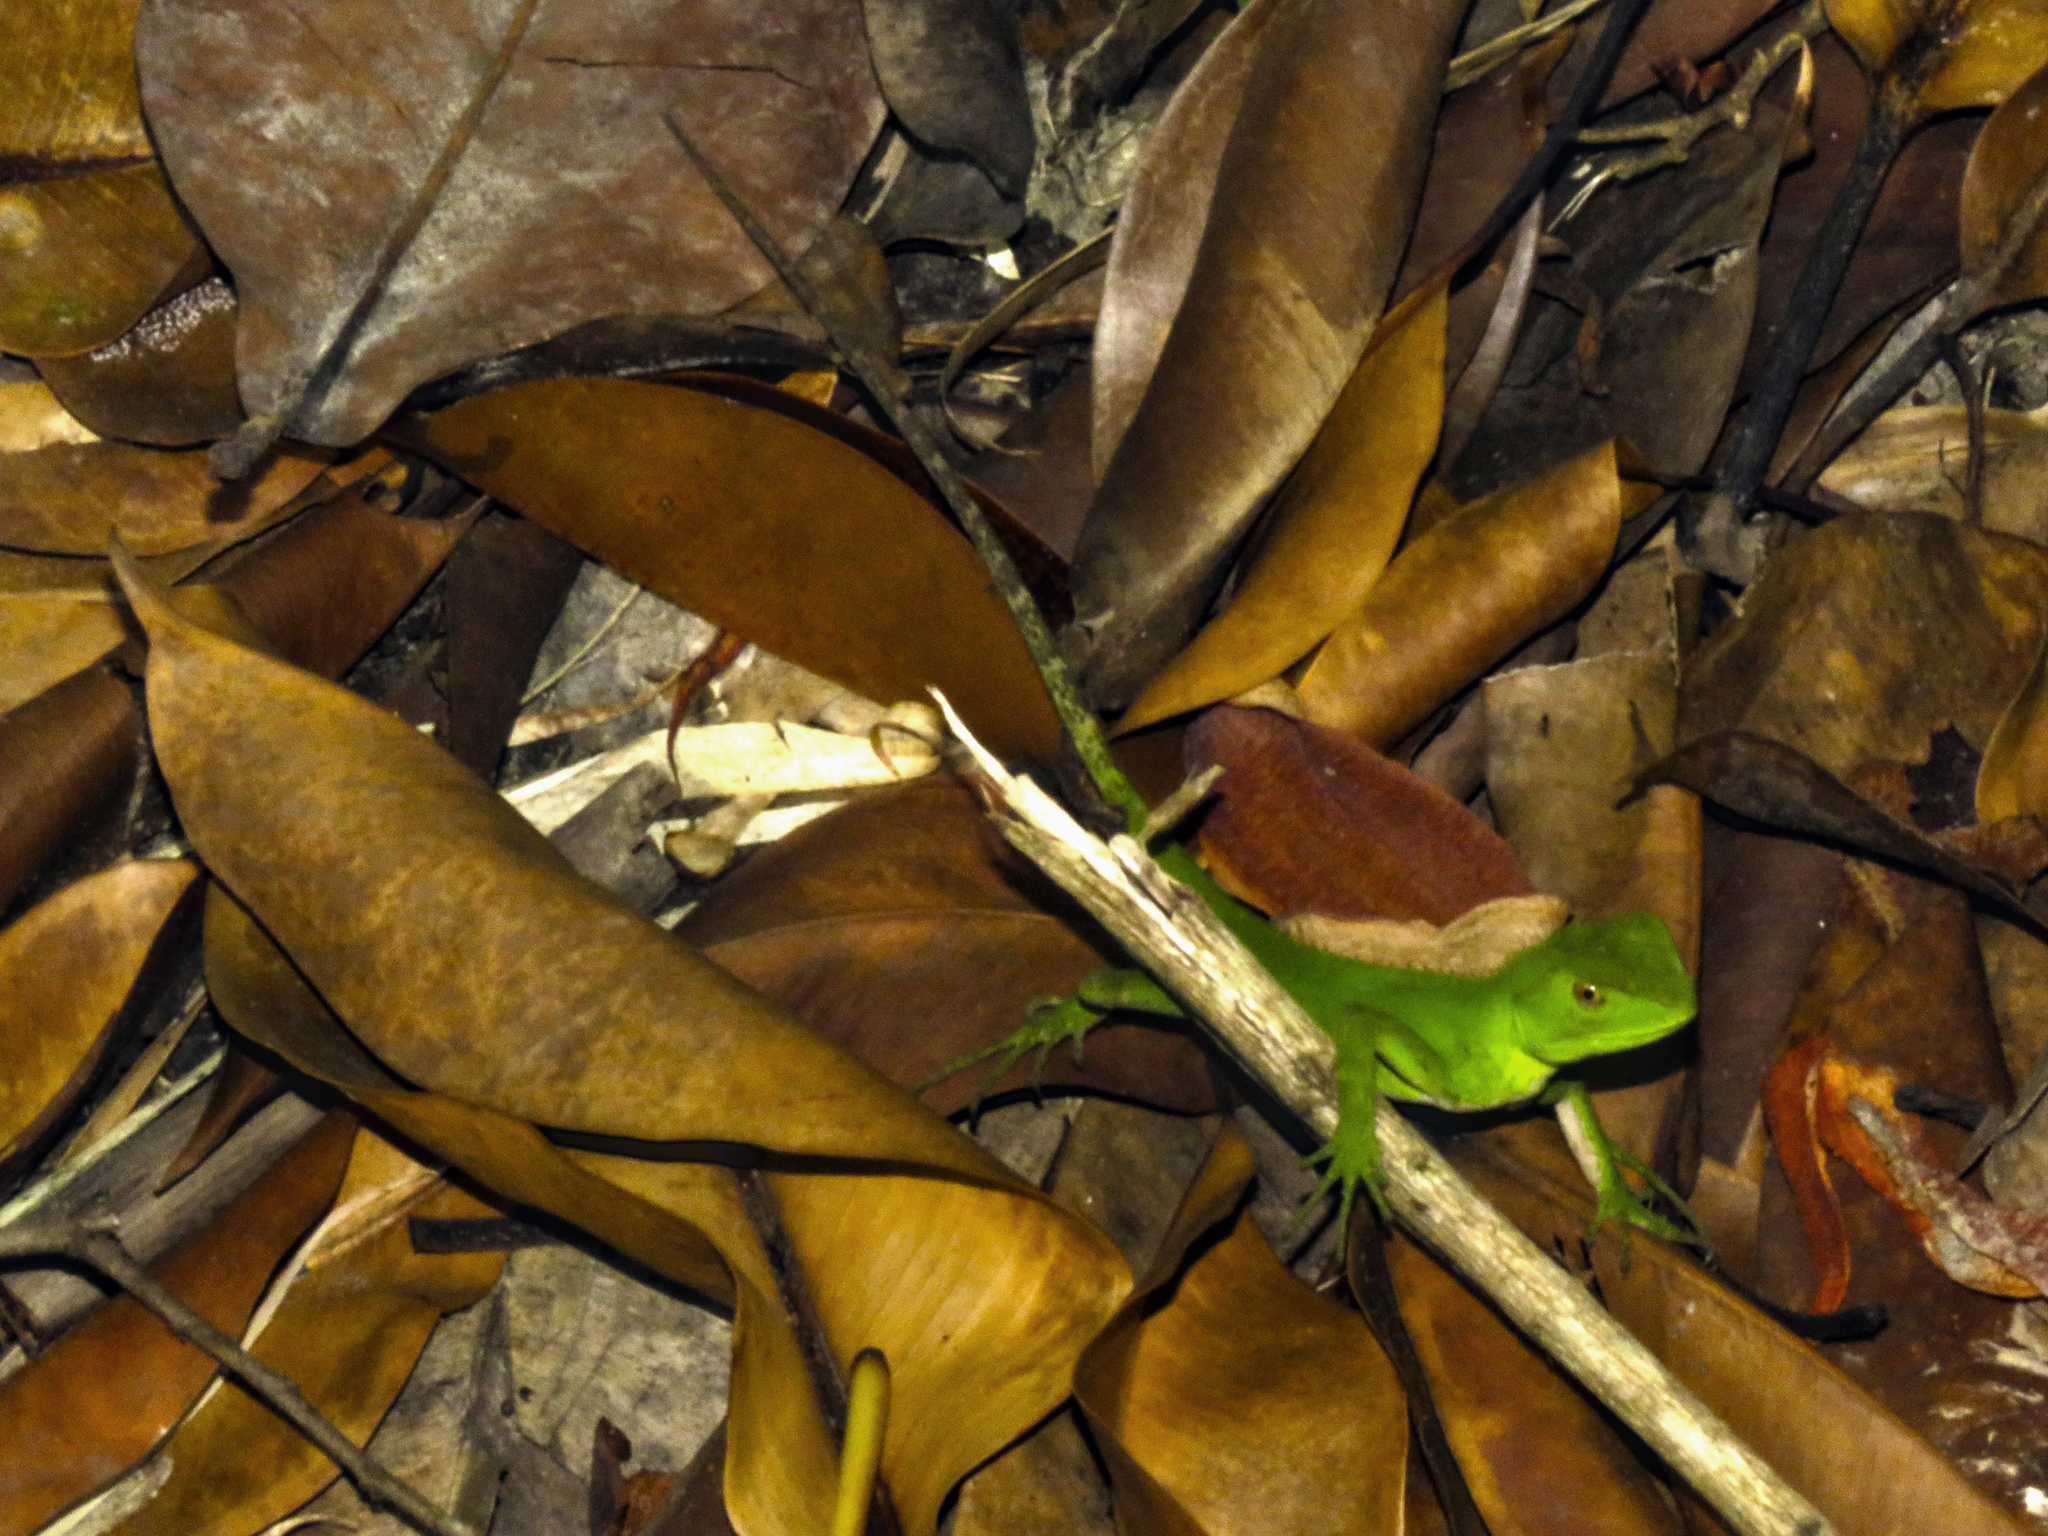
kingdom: Animalia
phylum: Chordata
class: Squamata
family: Leiosauridae
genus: Enyalius
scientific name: Enyalius iheringii
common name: Ihering's fathead anole
